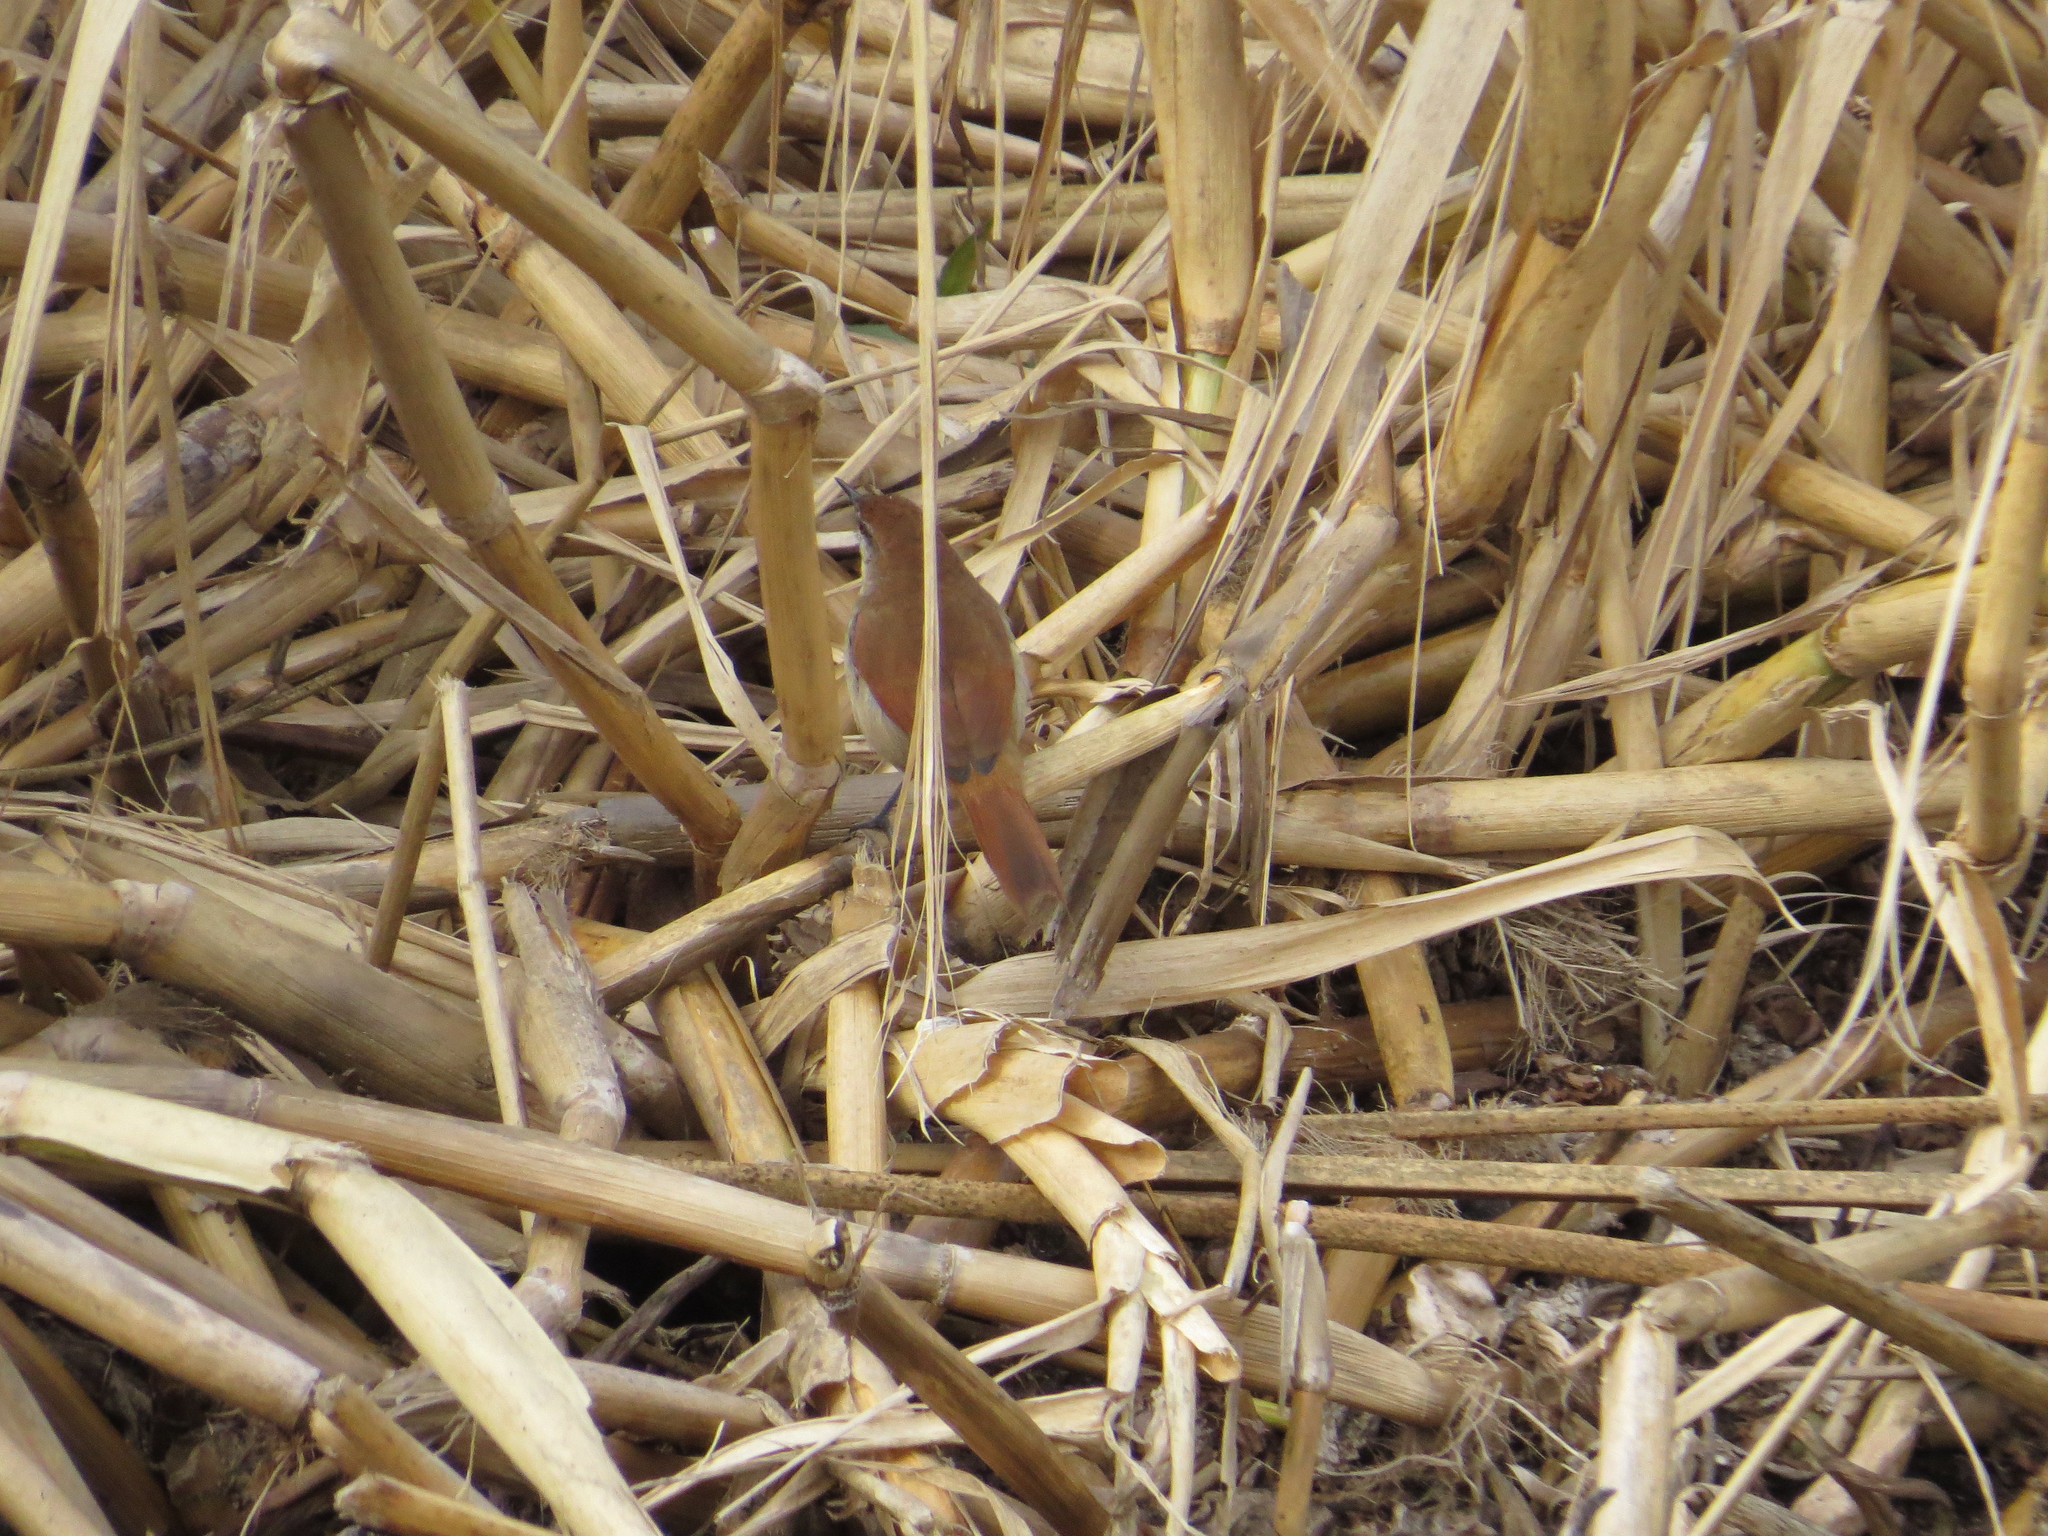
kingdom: Animalia
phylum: Chordata
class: Aves
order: Passeriformes
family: Furnariidae
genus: Certhiaxis
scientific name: Certhiaxis cinnamomeus
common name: Yellow-chinned spinetail
